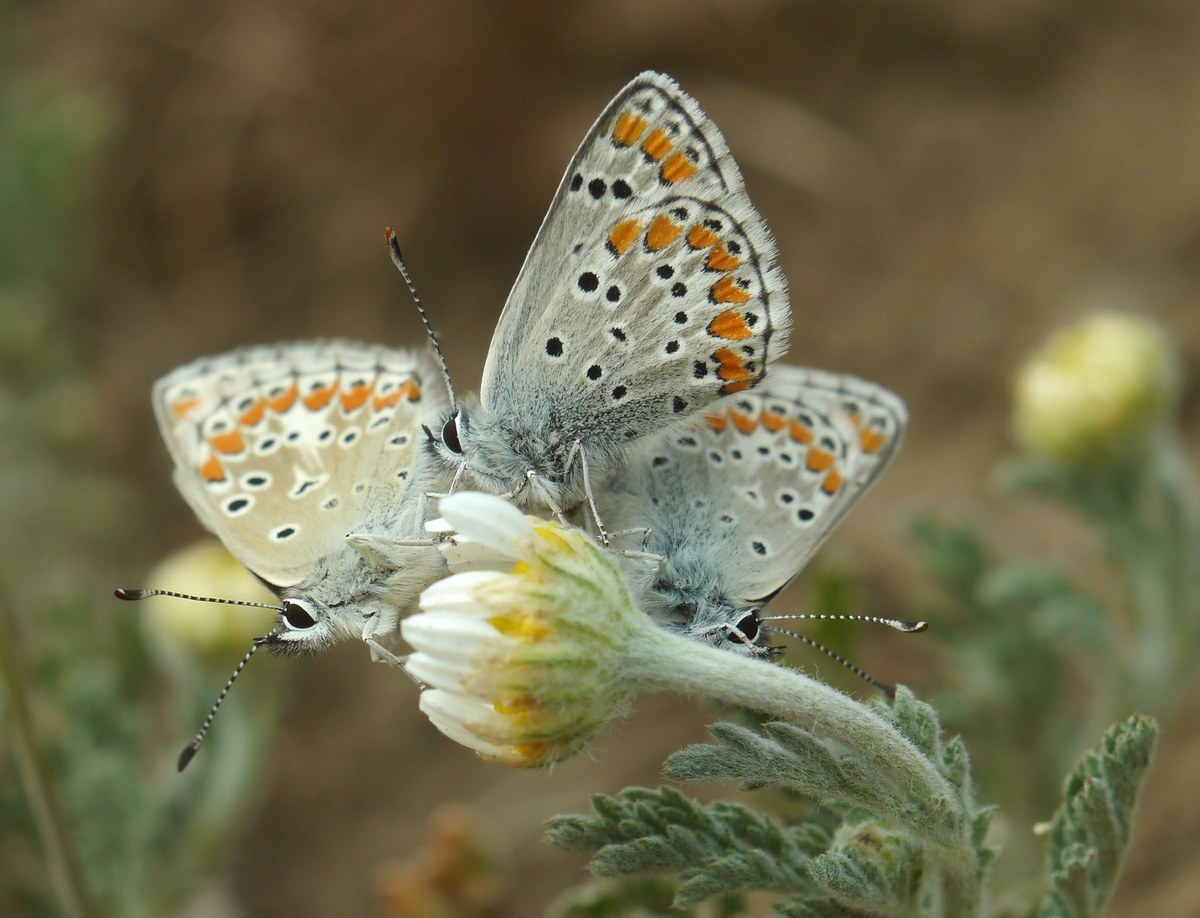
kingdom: Animalia
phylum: Arthropoda
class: Insecta
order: Lepidoptera
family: Lycaenidae
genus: Aricia
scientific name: Aricia agestis
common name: Brown argus
